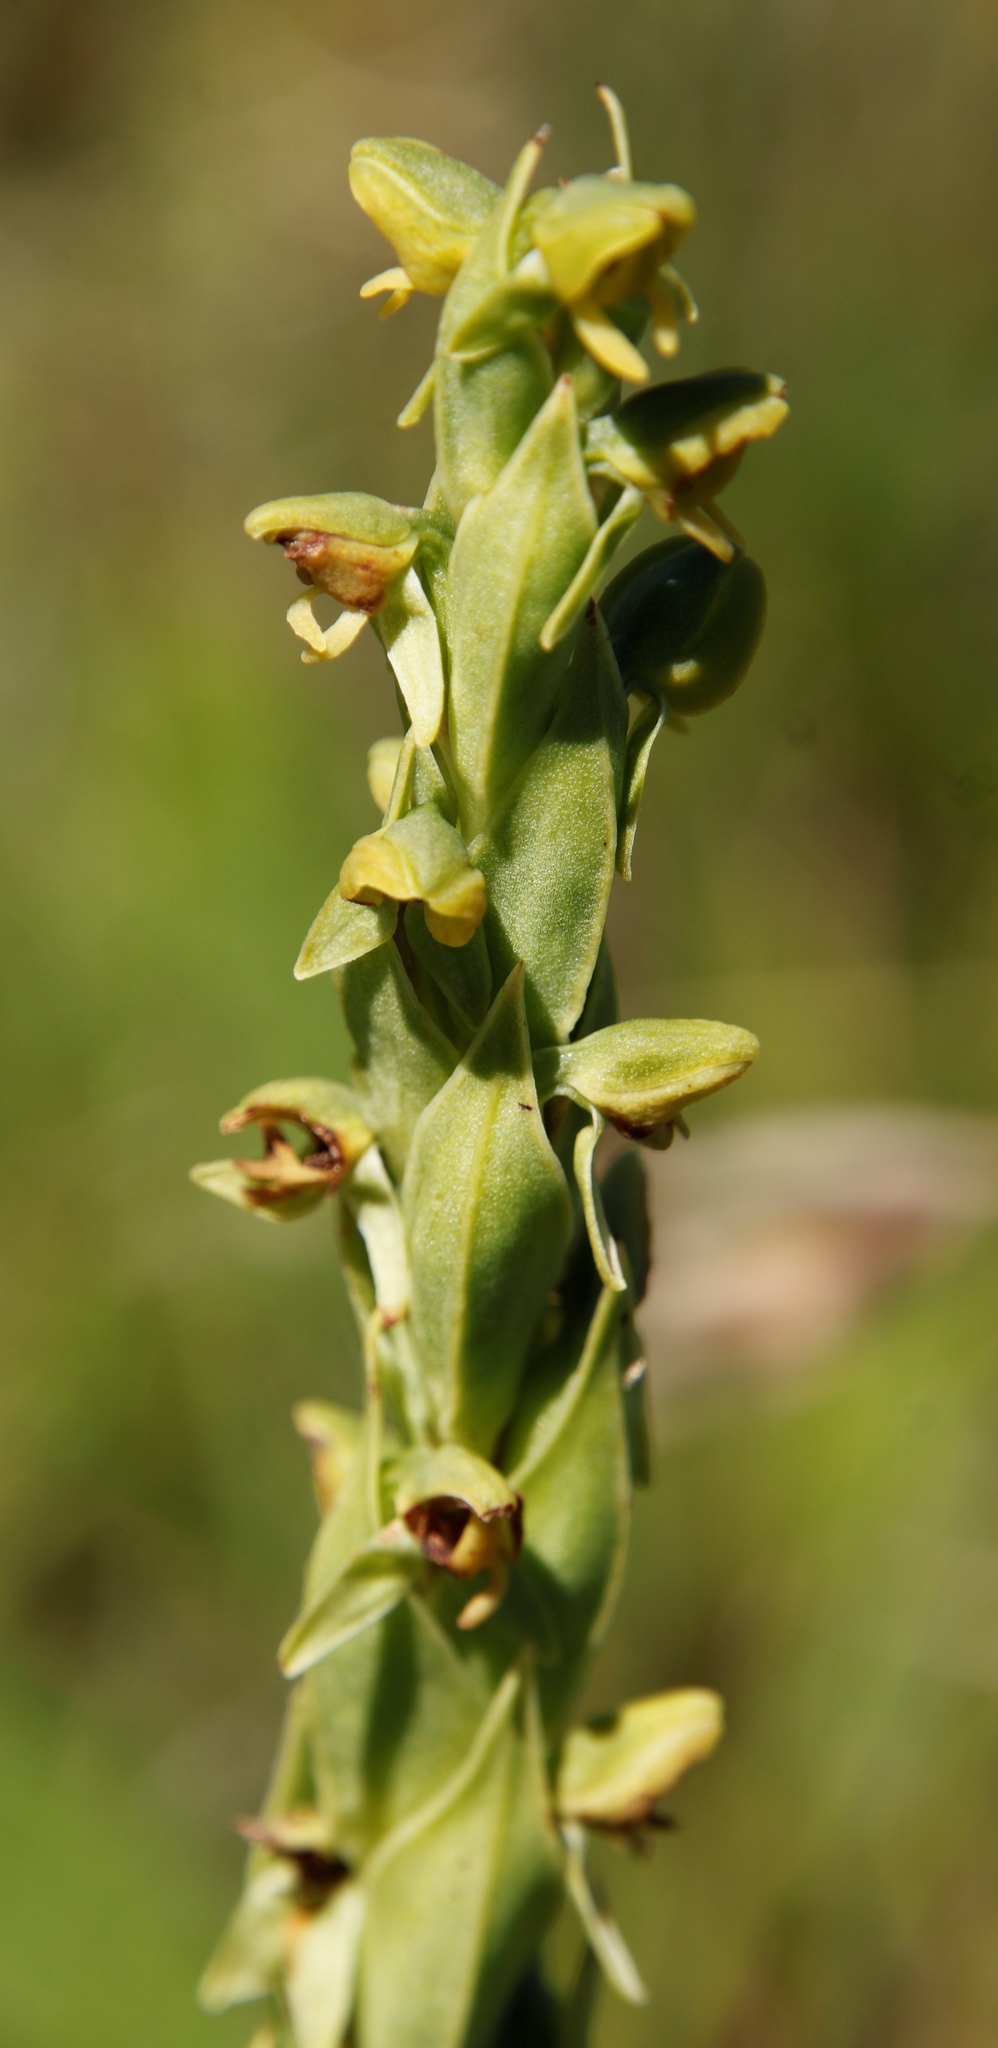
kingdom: Plantae
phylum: Tracheophyta
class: Liliopsida
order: Asparagales
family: Orchidaceae
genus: Habenaria
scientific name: Habenaria laevigata
